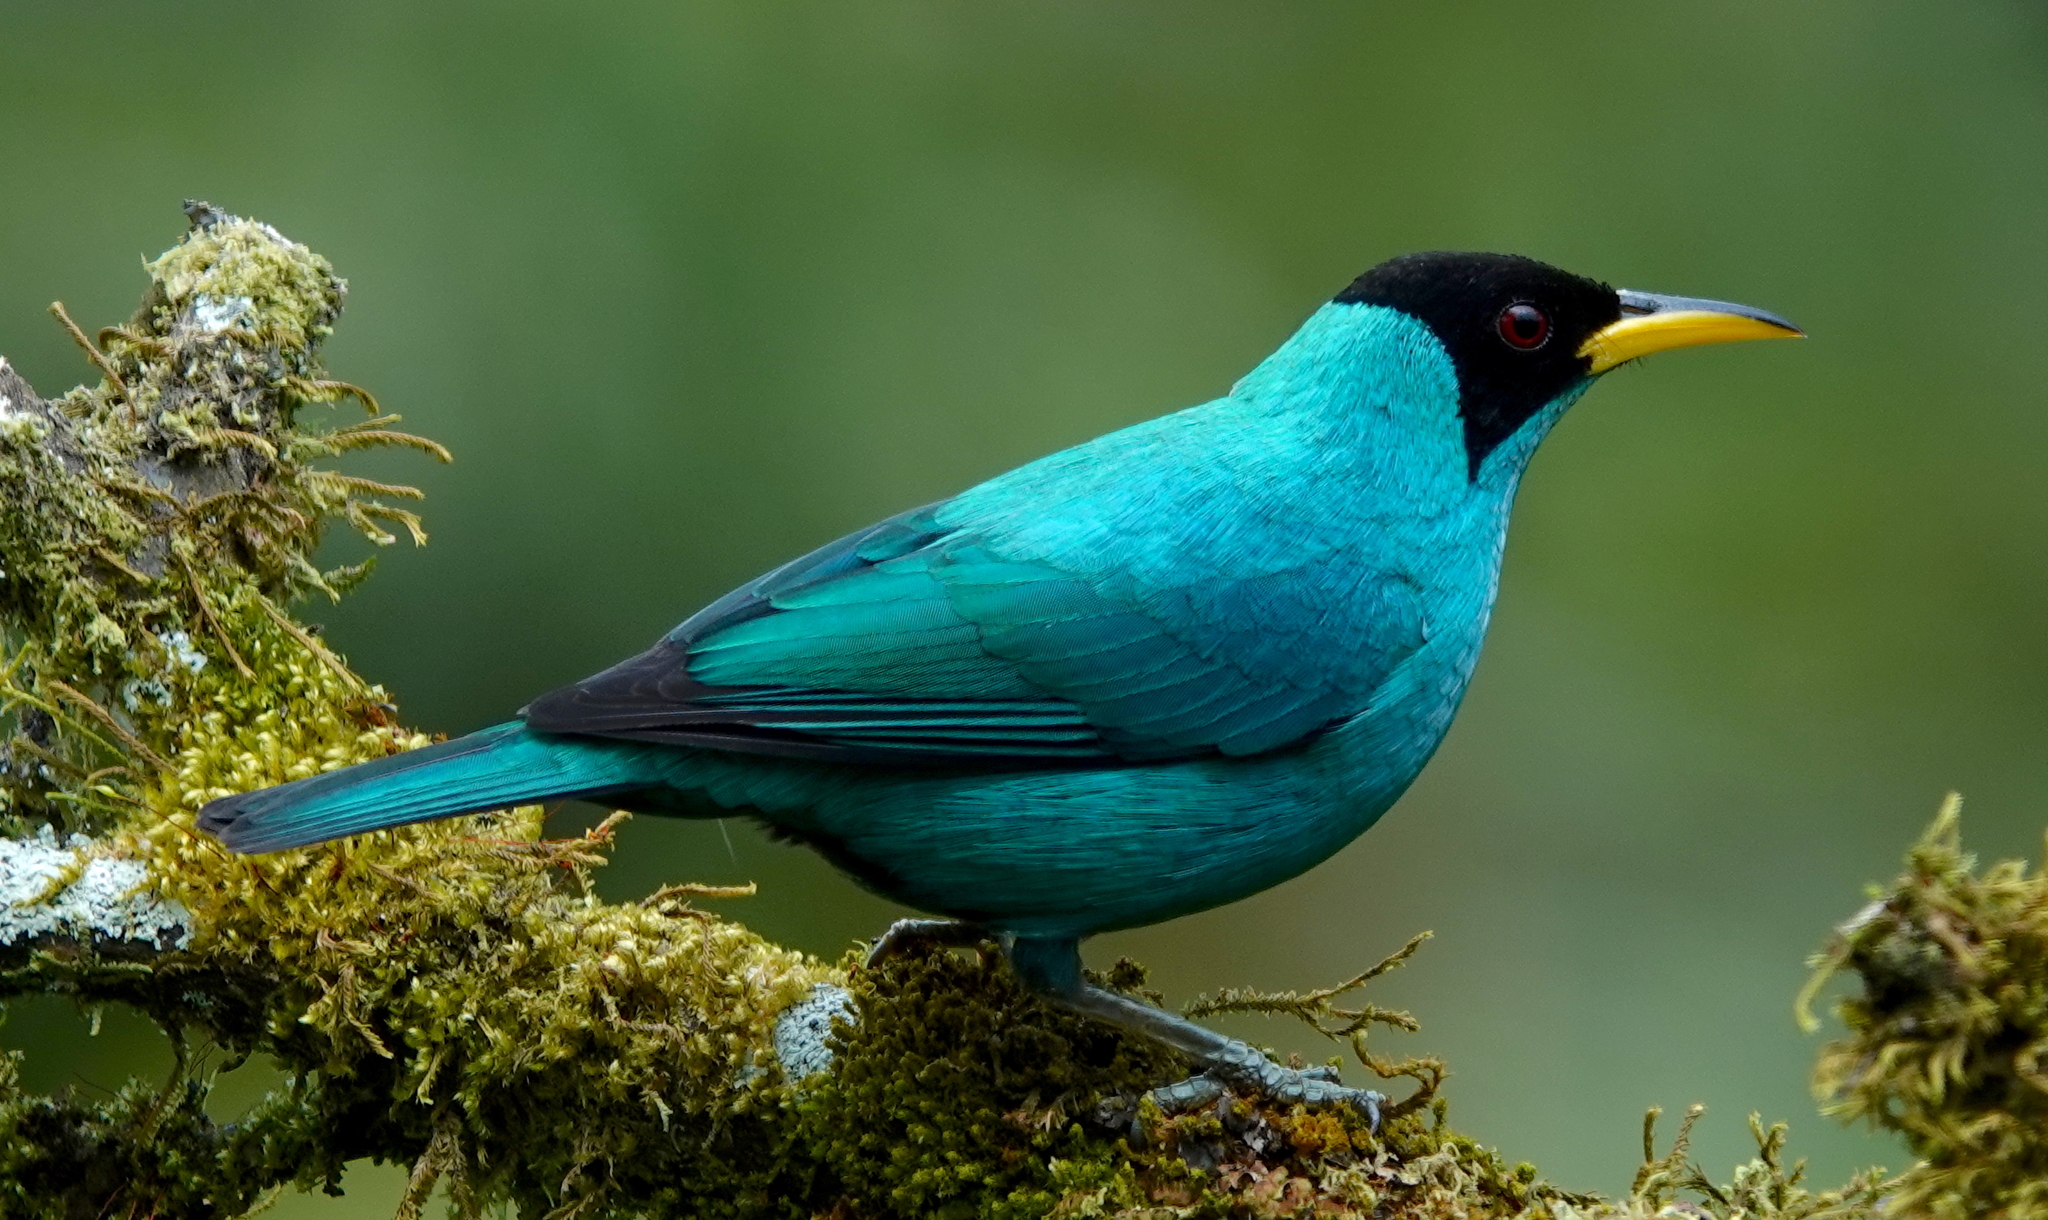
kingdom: Animalia
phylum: Chordata
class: Aves
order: Passeriformes
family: Thraupidae
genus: Chlorophanes
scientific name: Chlorophanes spiza
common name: Green honeycreeper
